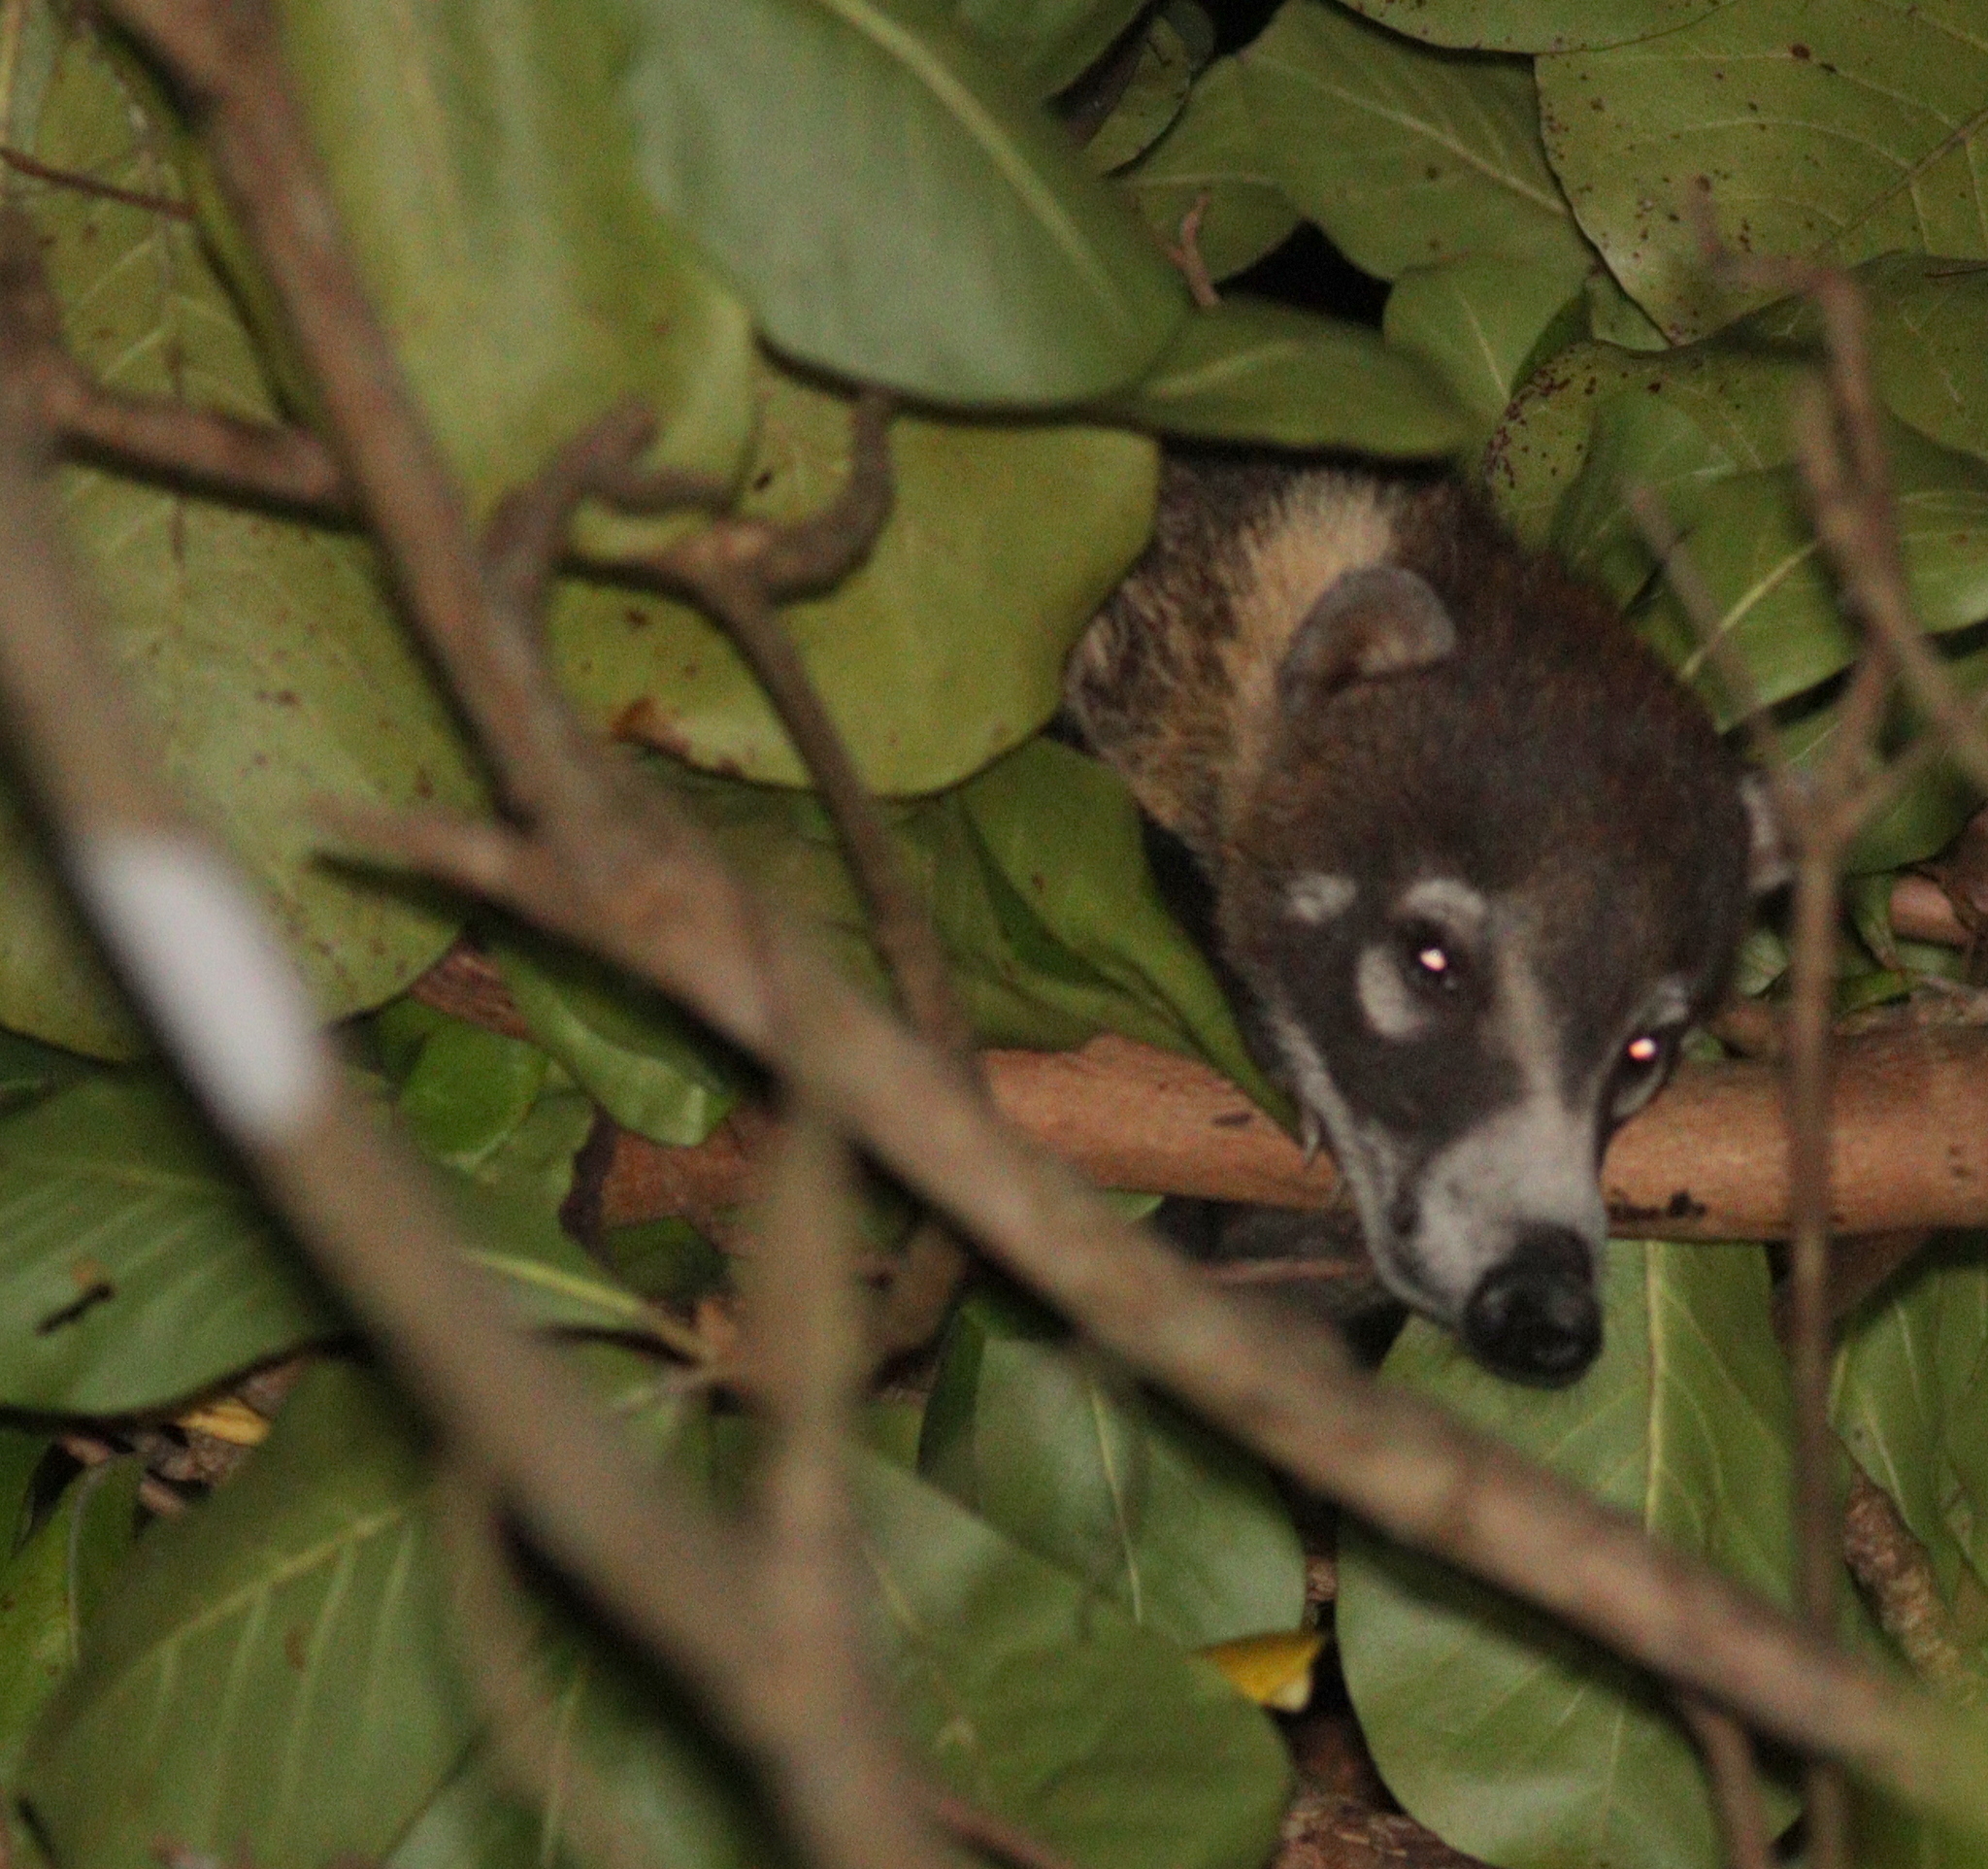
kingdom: Animalia
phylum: Chordata
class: Mammalia
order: Carnivora
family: Procyonidae
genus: Nasua
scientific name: Nasua narica
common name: White-nosed coati
